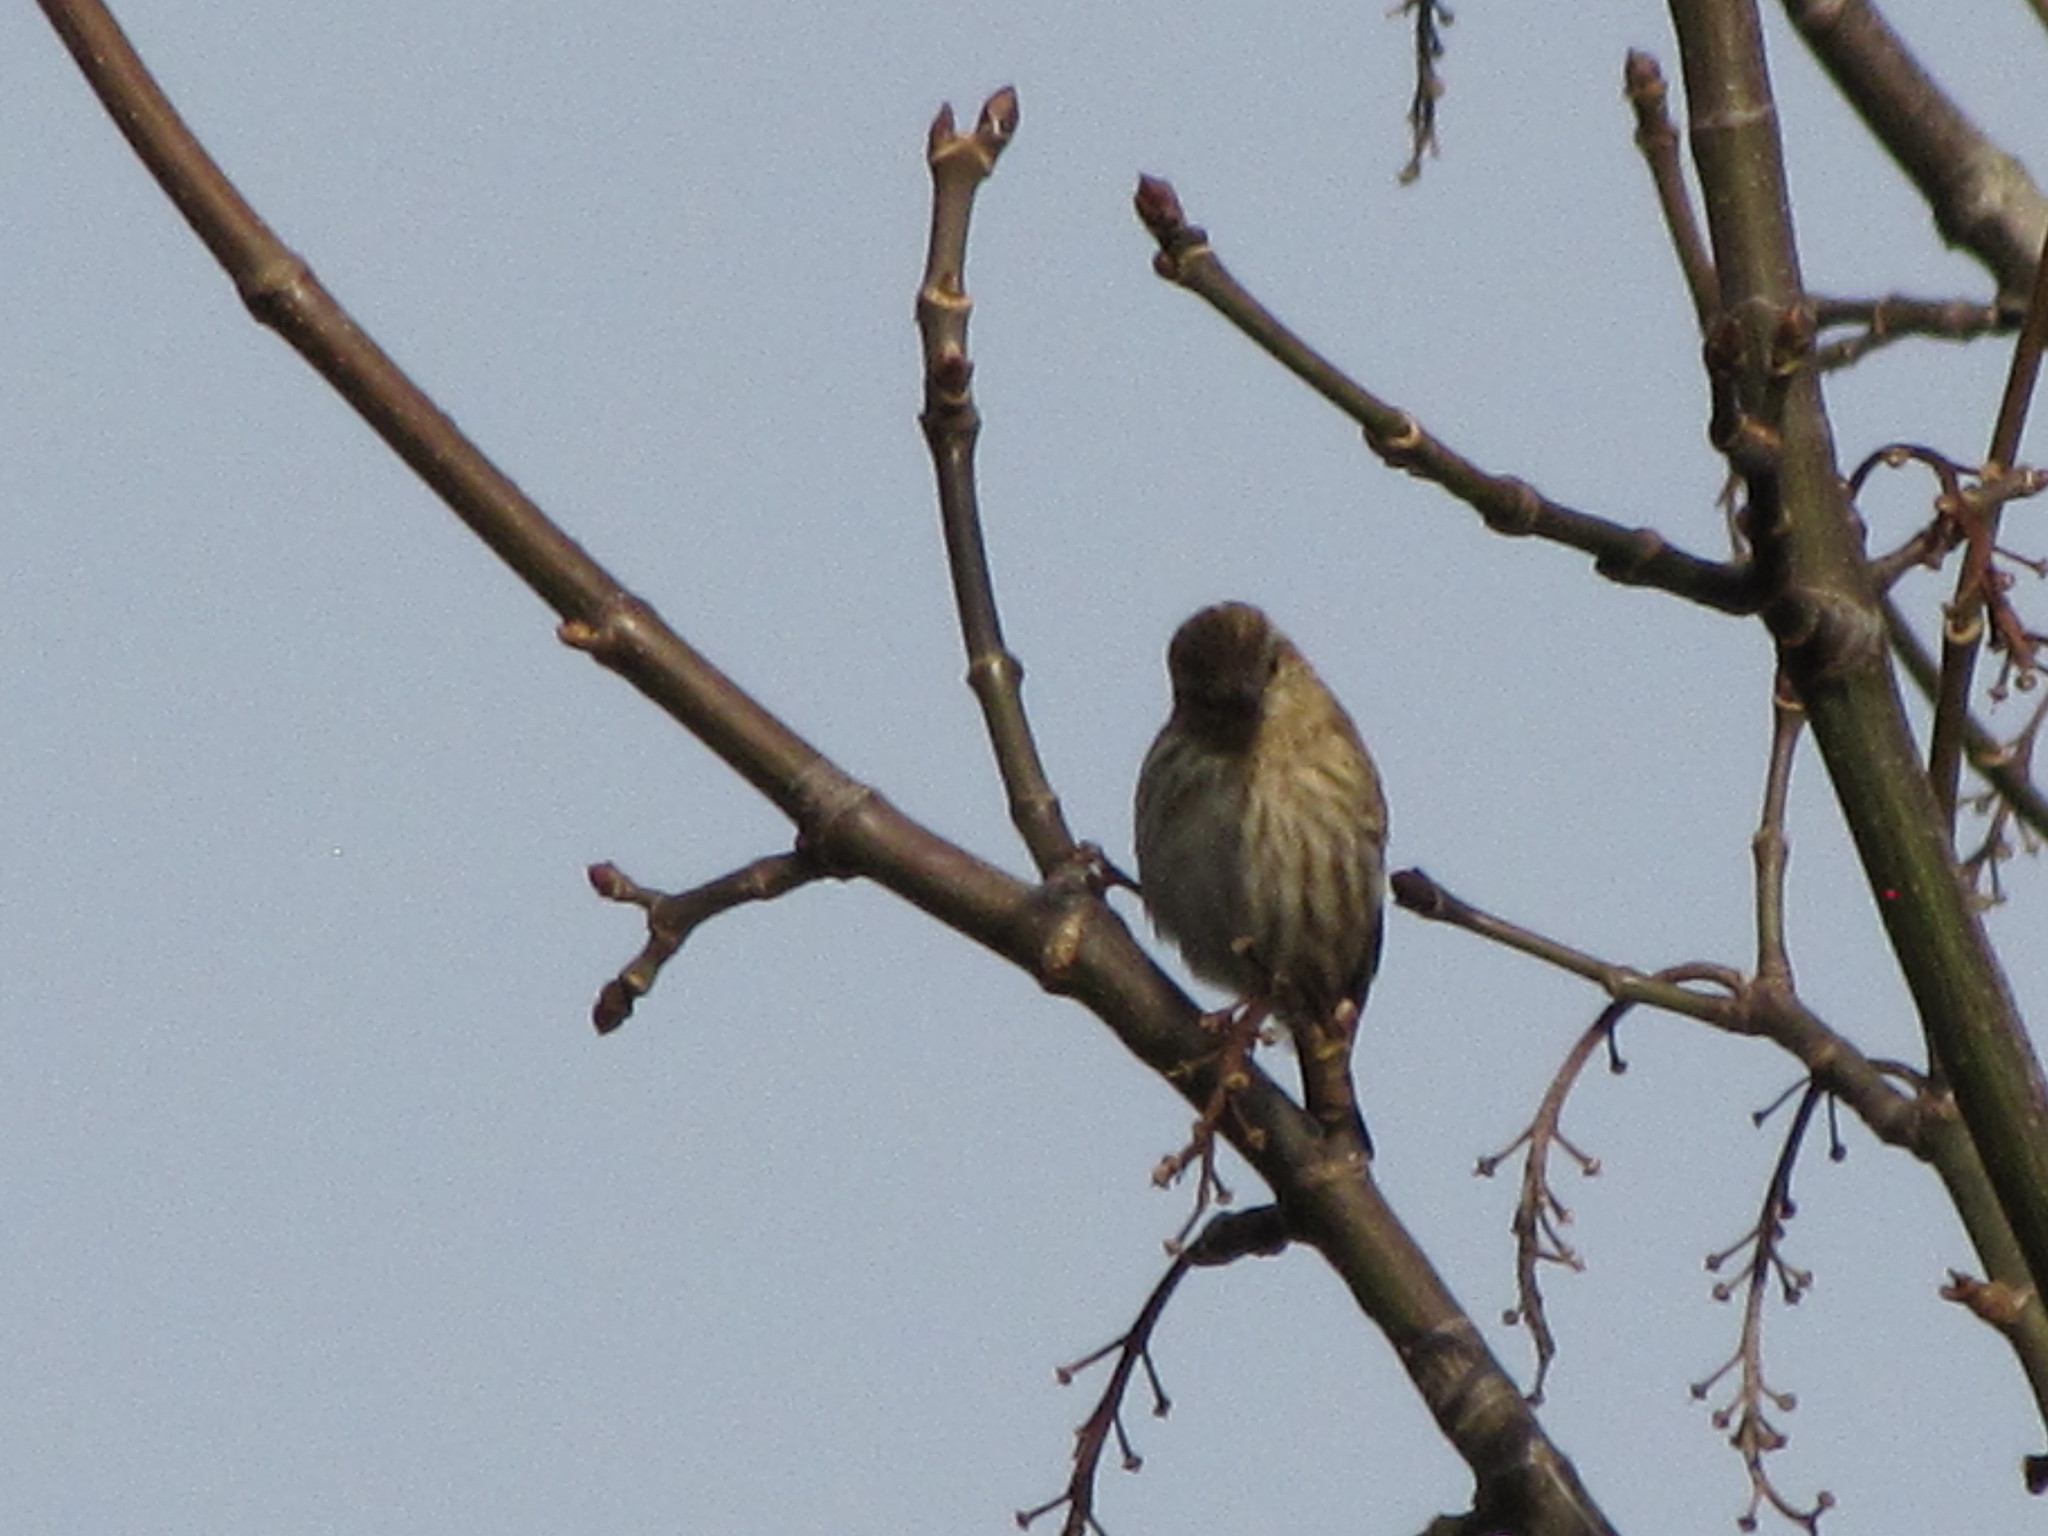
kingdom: Animalia
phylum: Chordata
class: Aves
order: Passeriformes
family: Fringillidae
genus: Spinus
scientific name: Spinus pinus
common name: Pine siskin
